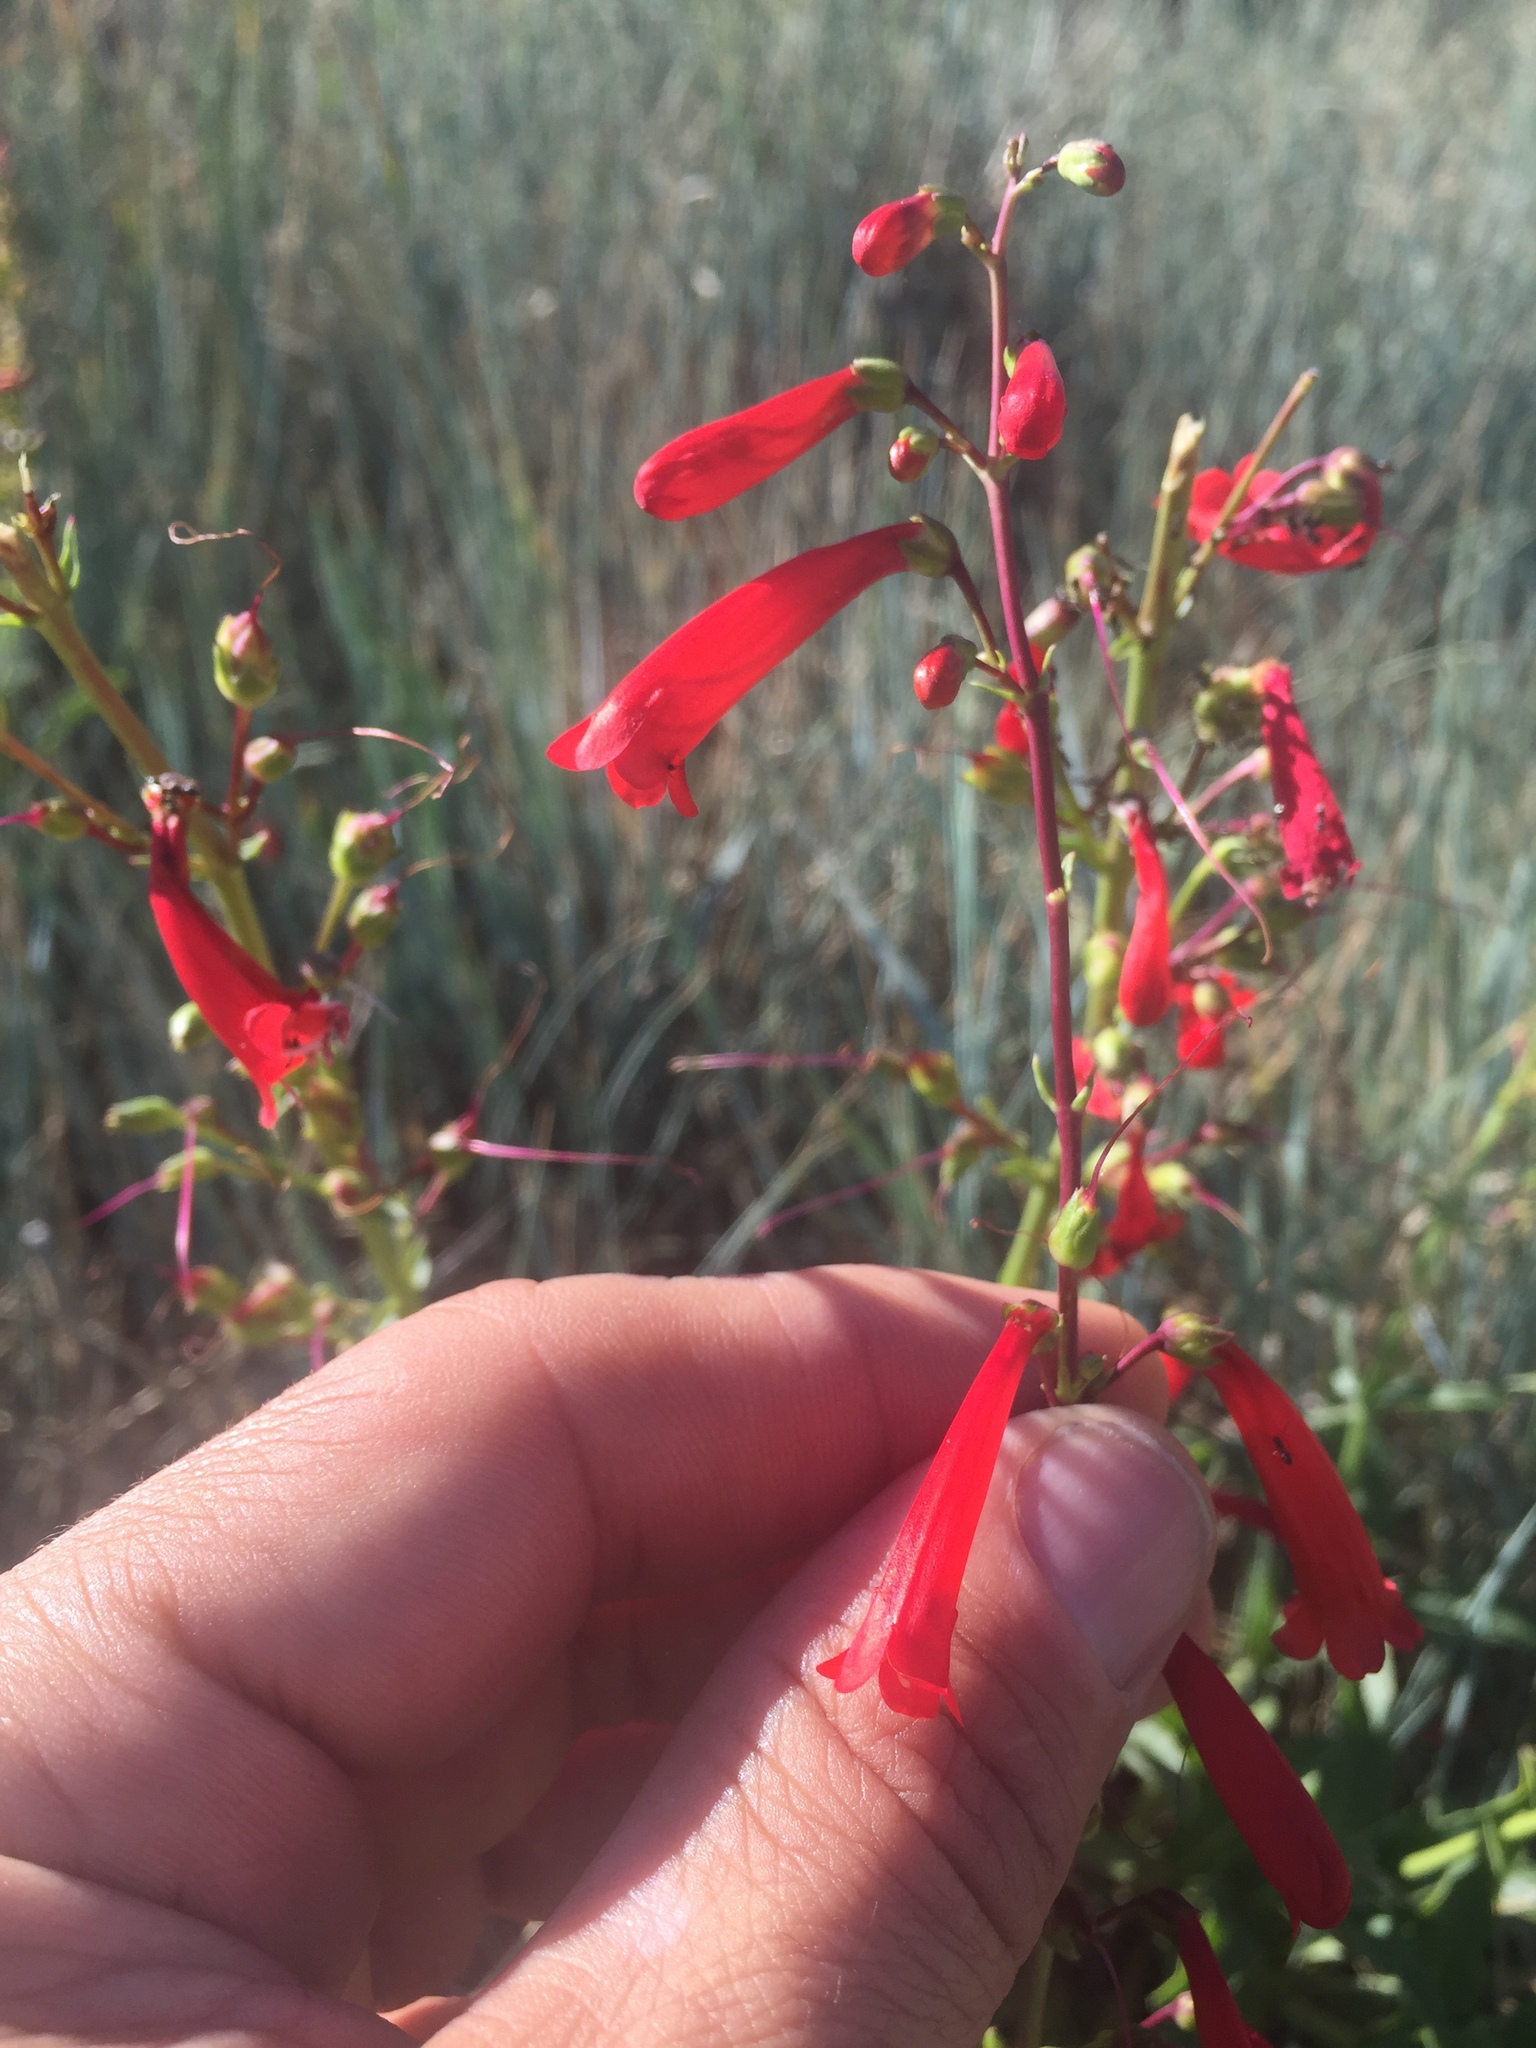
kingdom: Plantae
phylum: Tracheophyta
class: Magnoliopsida
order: Lamiales
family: Plantaginaceae
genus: Penstemon
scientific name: Penstemon eatonii
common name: Eaton's penstemon
